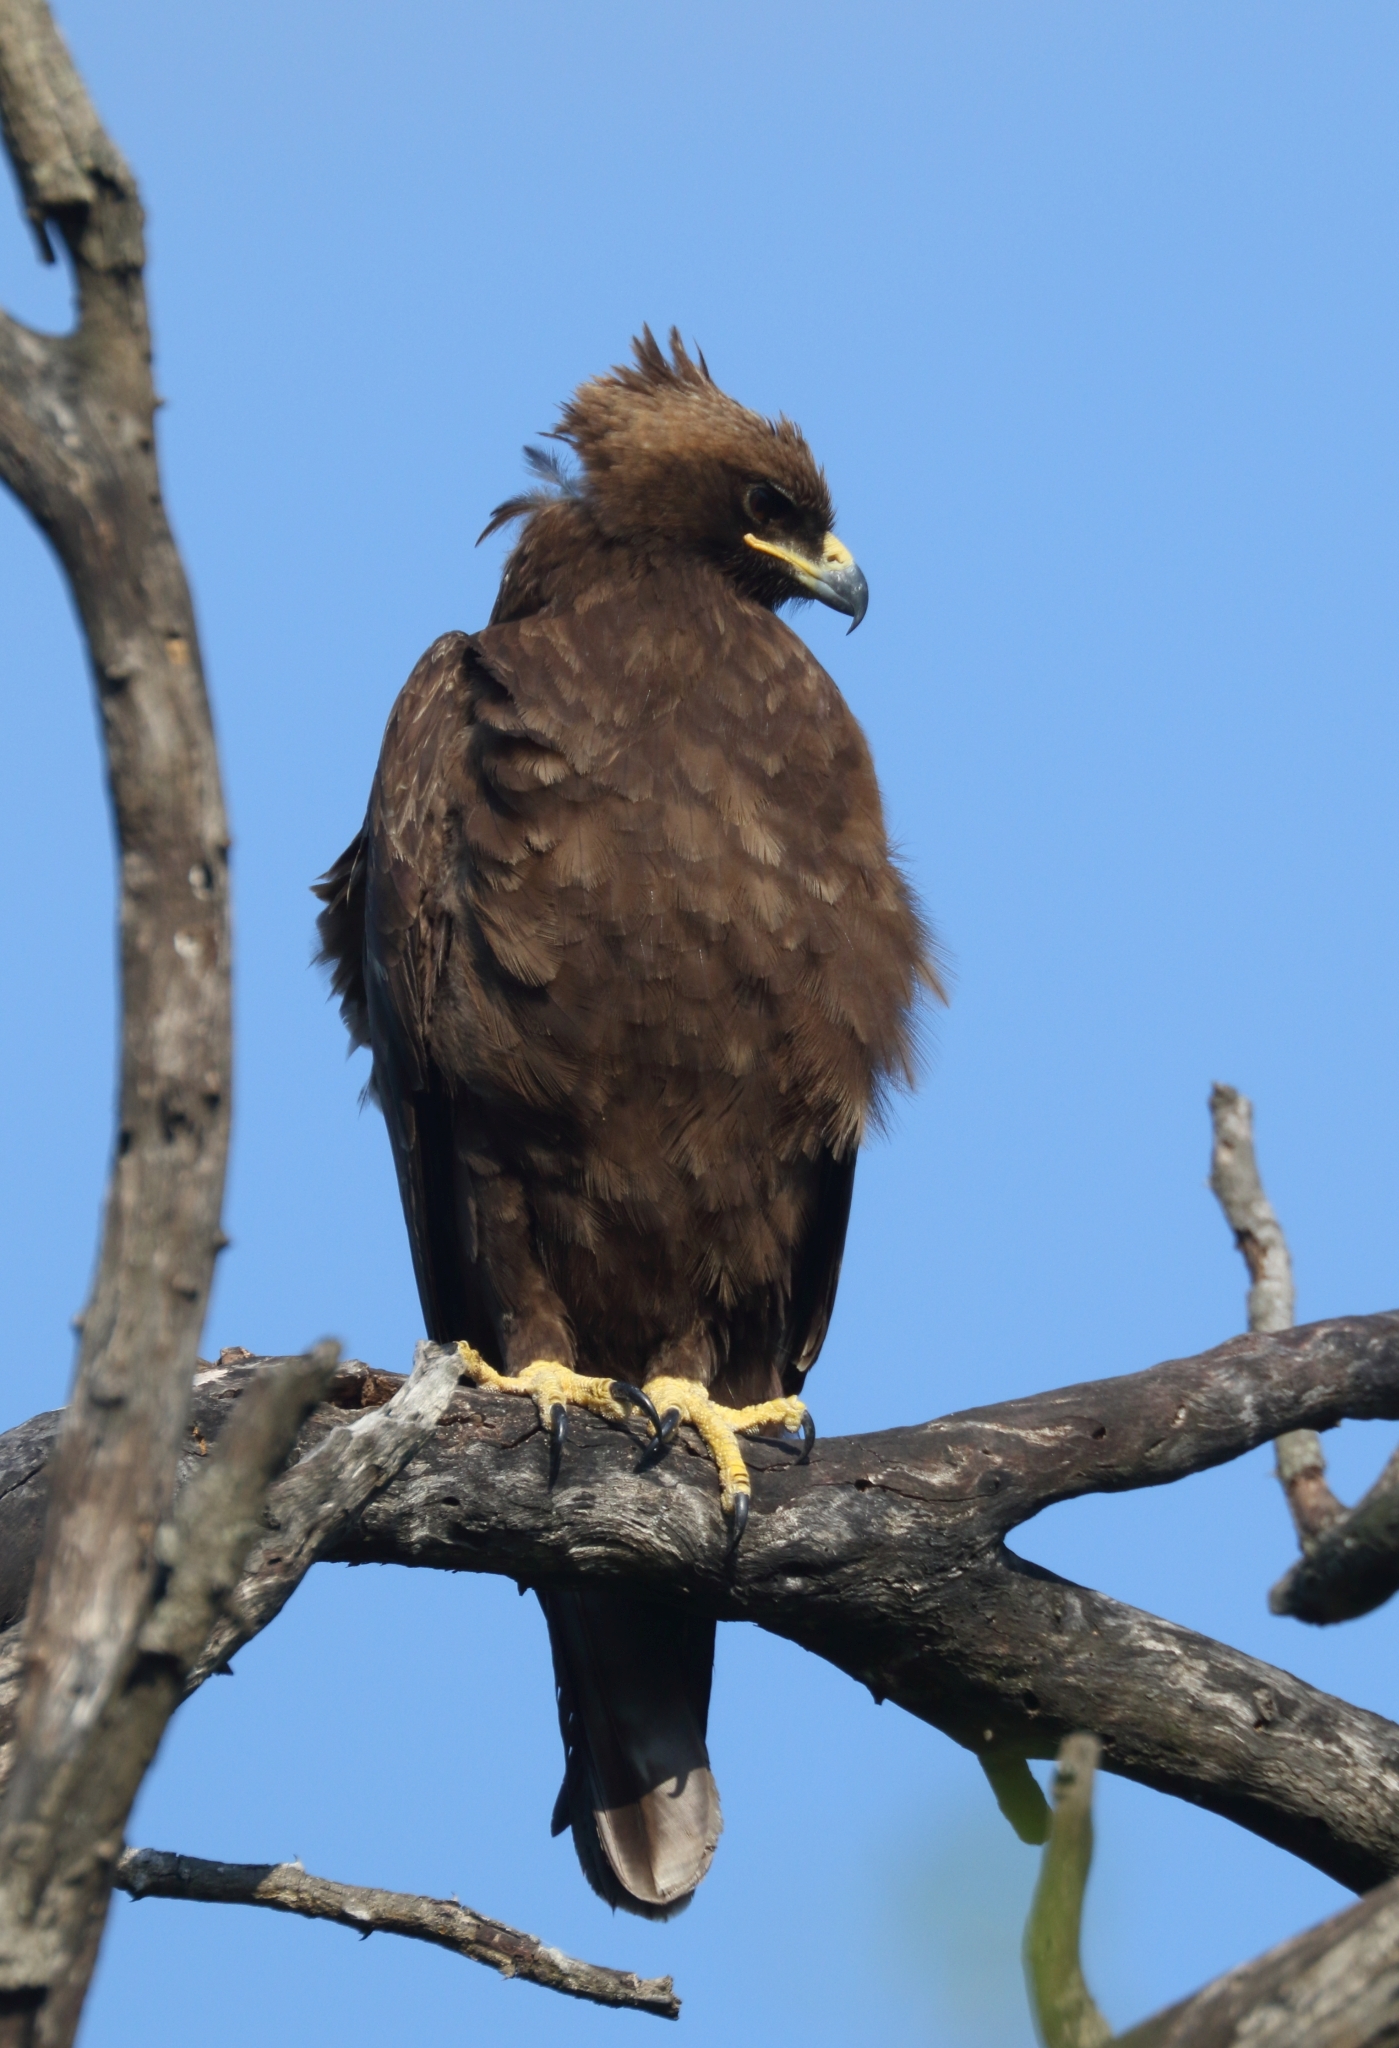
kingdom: Animalia
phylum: Chordata
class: Aves
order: Accipitriformes
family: Accipitridae
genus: Hieraaetus
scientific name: Hieraaetus wahlbergi
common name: Wahlberg's eagle
